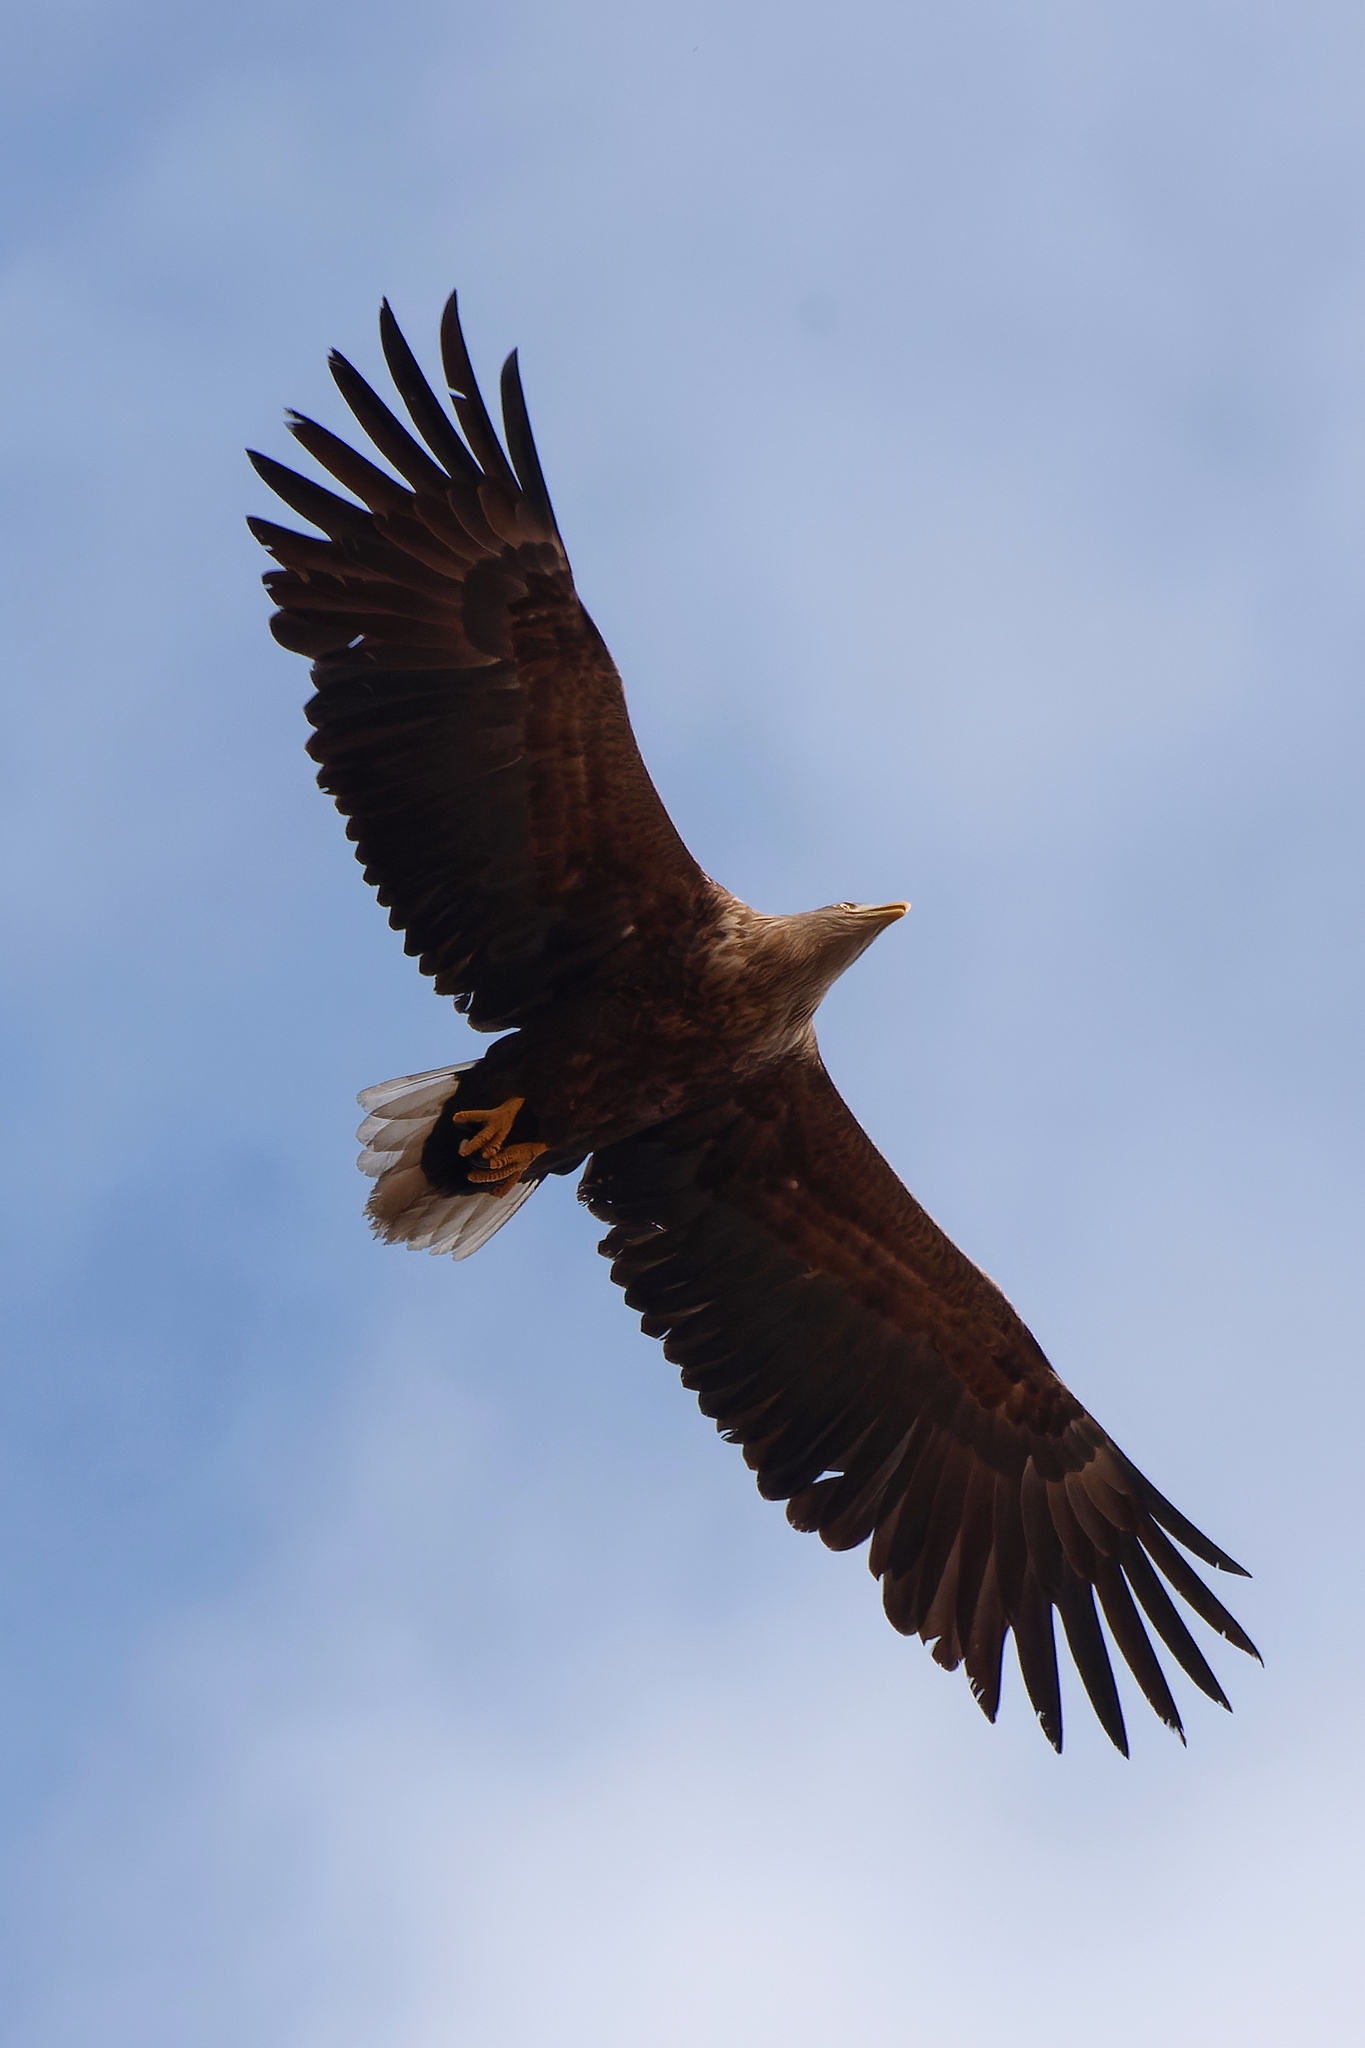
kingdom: Animalia
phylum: Chordata
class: Aves
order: Accipitriformes
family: Accipitridae
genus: Haliaeetus
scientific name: Haliaeetus albicilla
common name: White-tailed eagle
